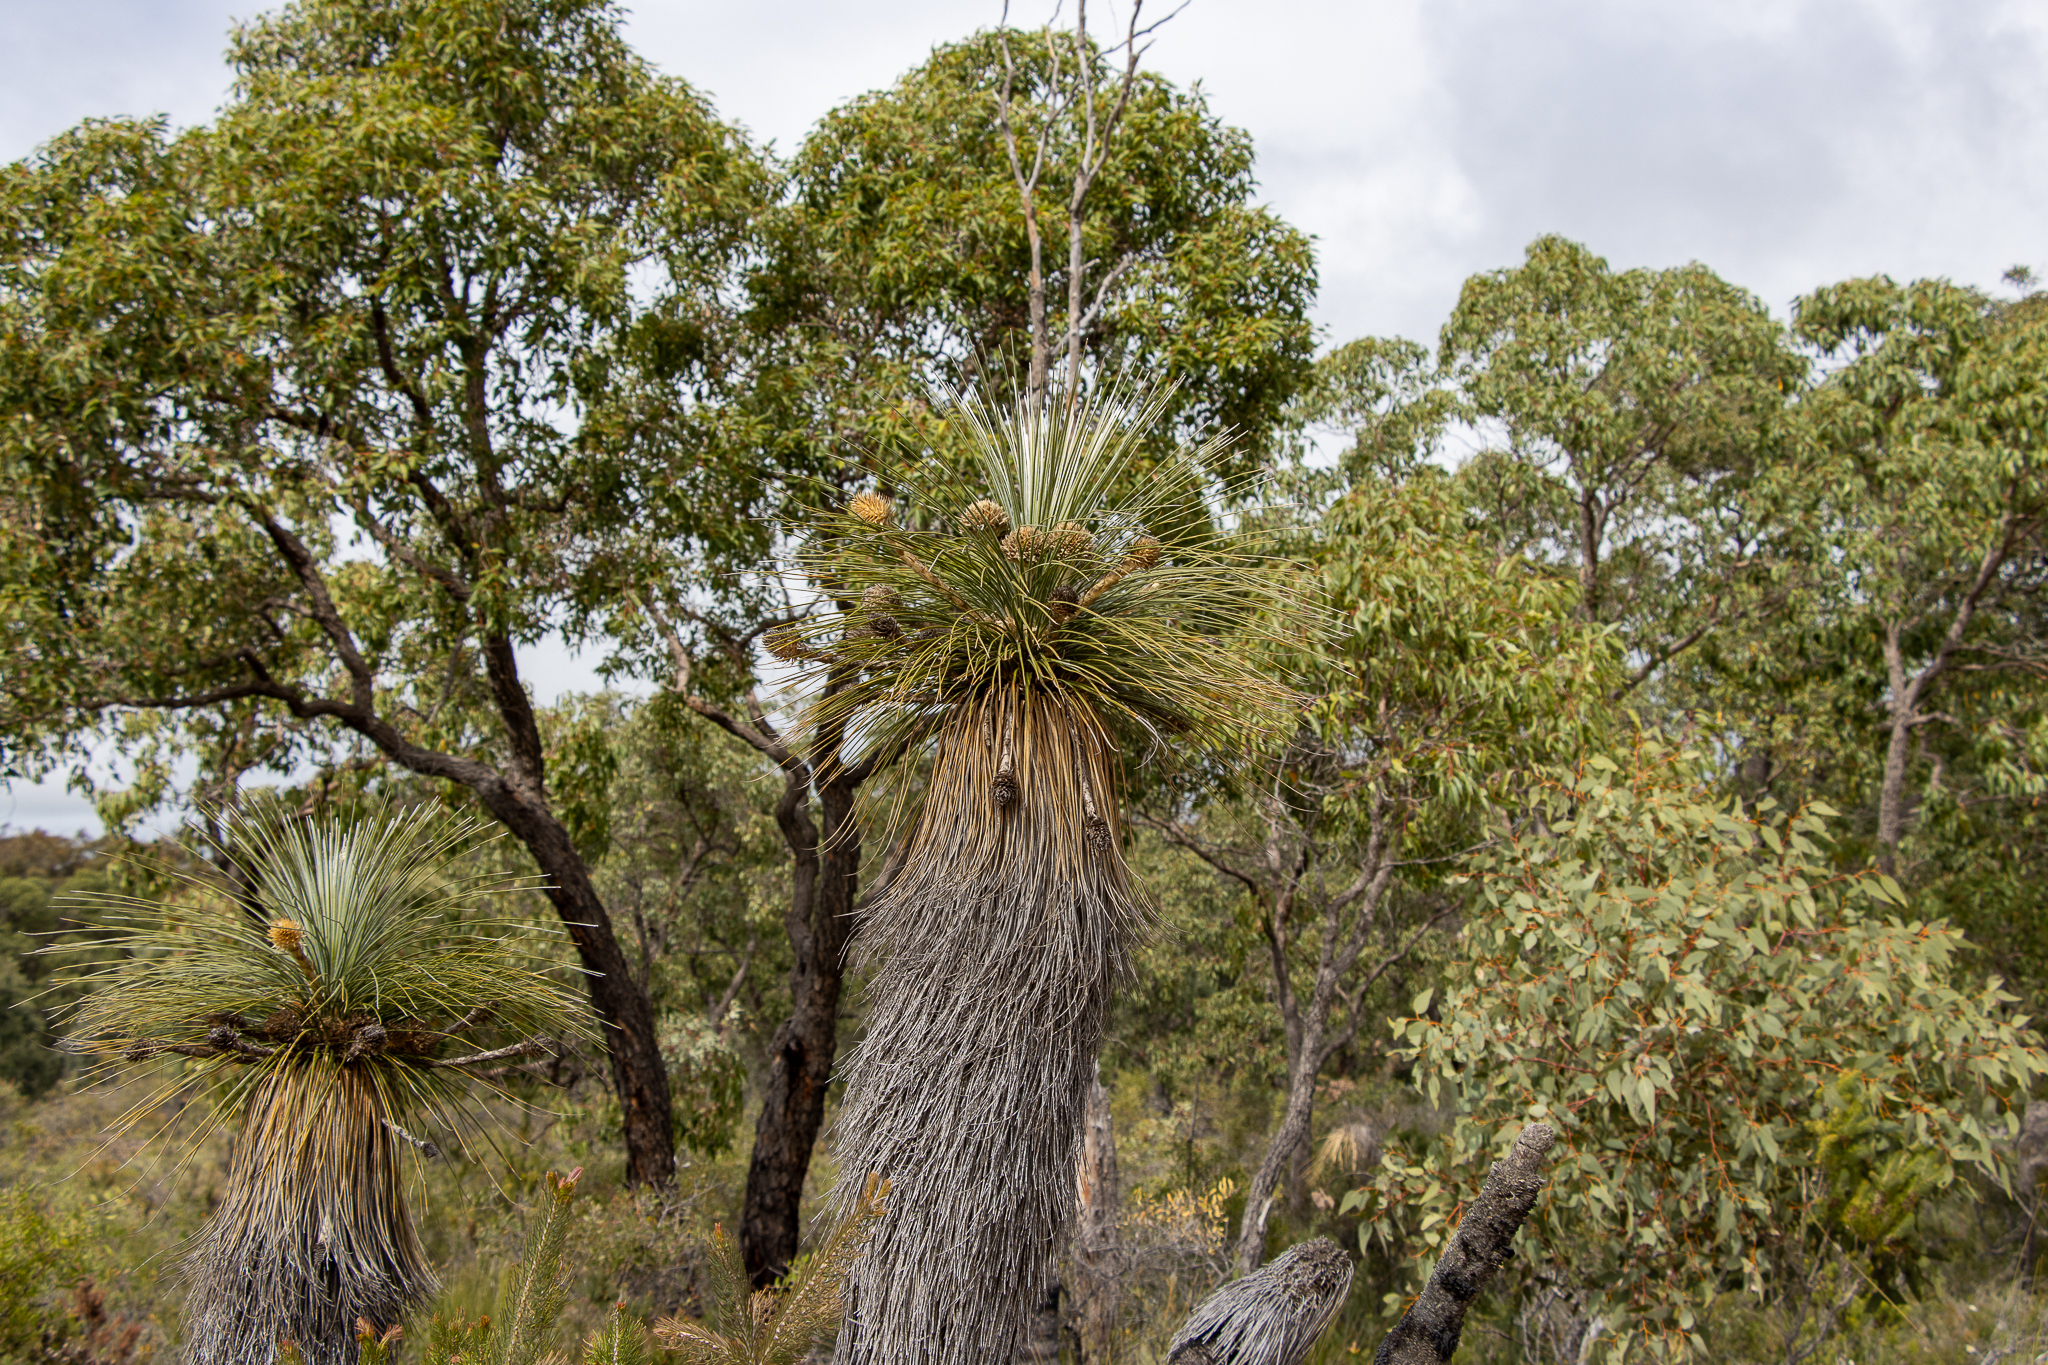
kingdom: Plantae
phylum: Tracheophyta
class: Liliopsida
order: Arecales
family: Dasypogonaceae
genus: Kingia
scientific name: Kingia australis
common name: Black gin
